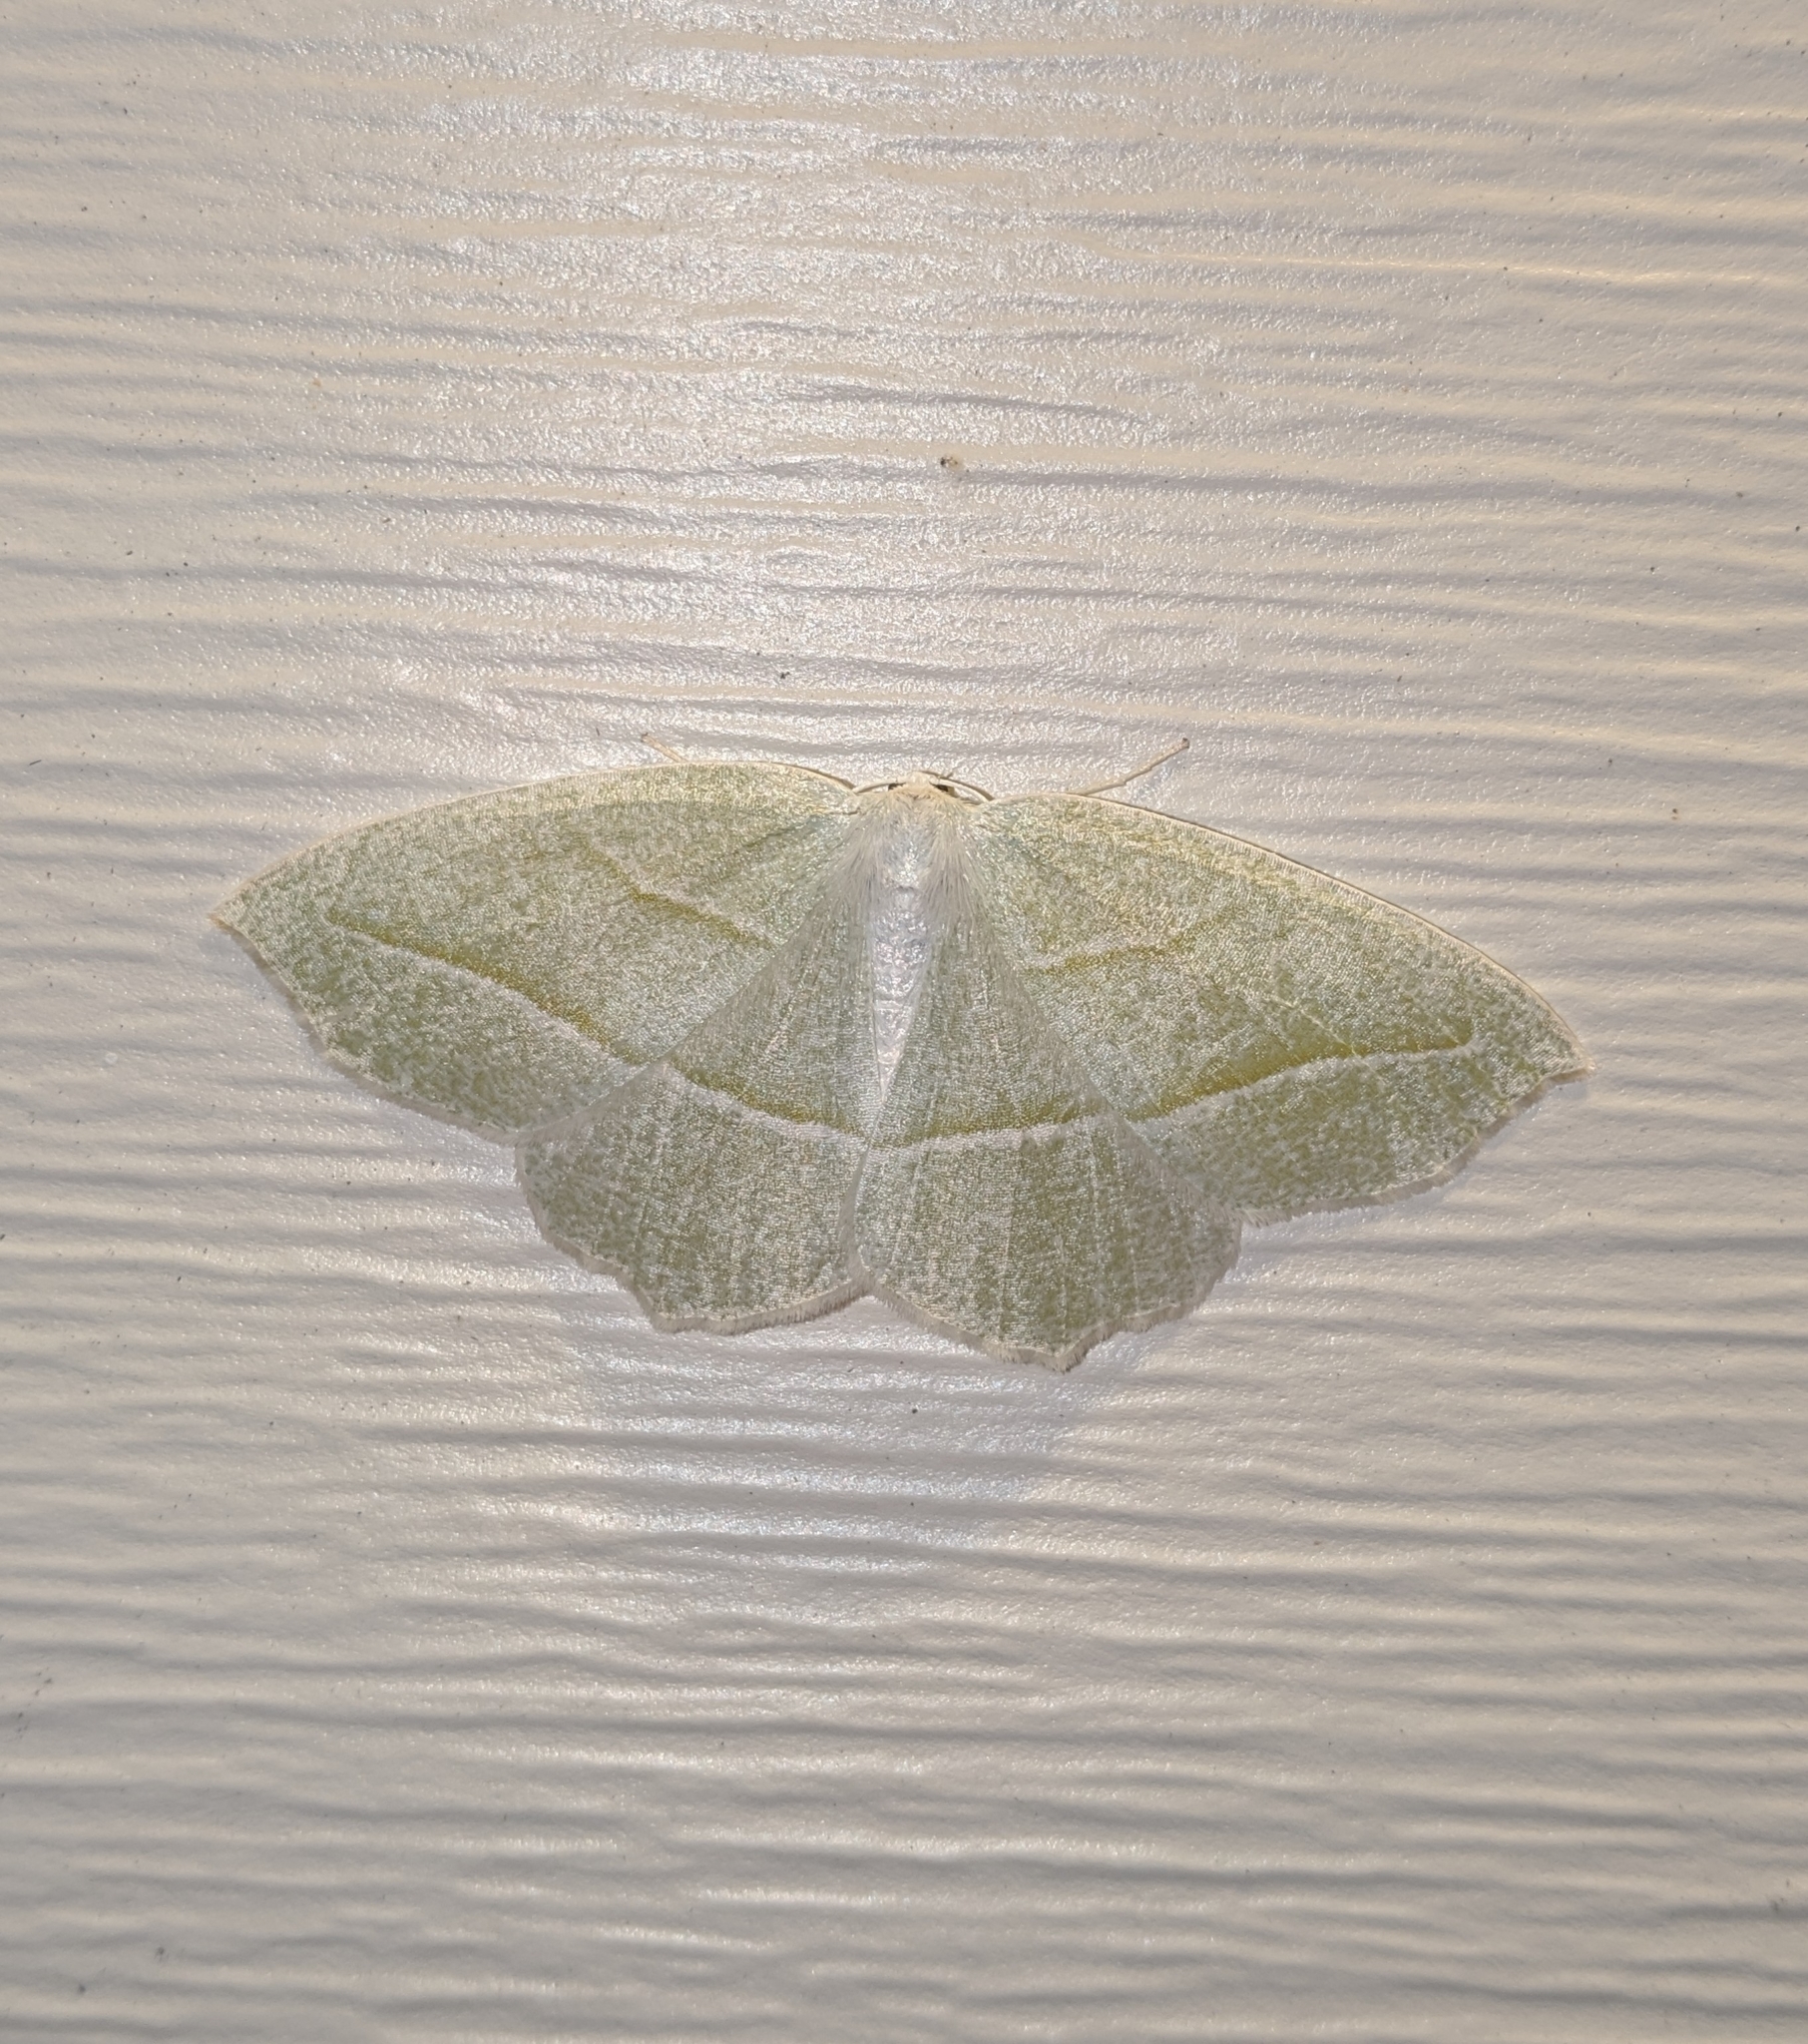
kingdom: Animalia
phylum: Arthropoda
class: Insecta
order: Lepidoptera
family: Geometridae
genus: Campaea
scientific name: Campaea perlata
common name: Fringed looper
